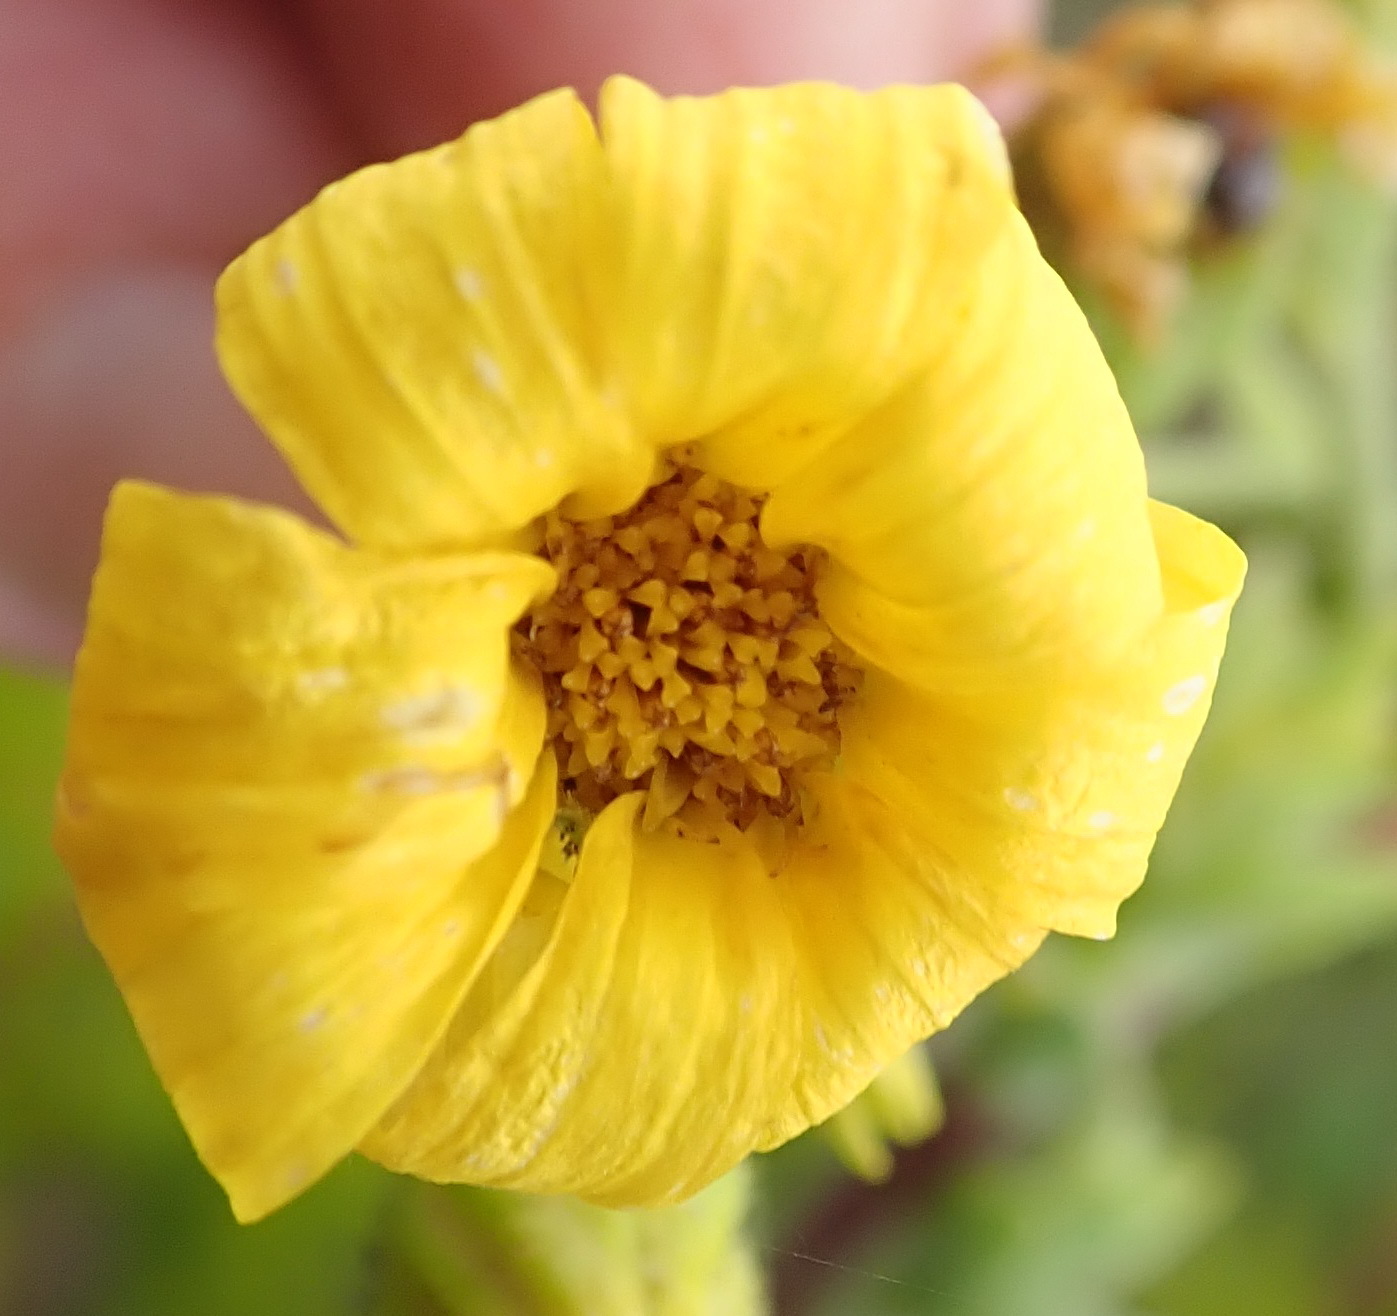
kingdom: Plantae
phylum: Tracheophyta
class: Magnoliopsida
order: Asterales
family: Asteraceae
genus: Osteospermum
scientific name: Osteospermum corymbosum
